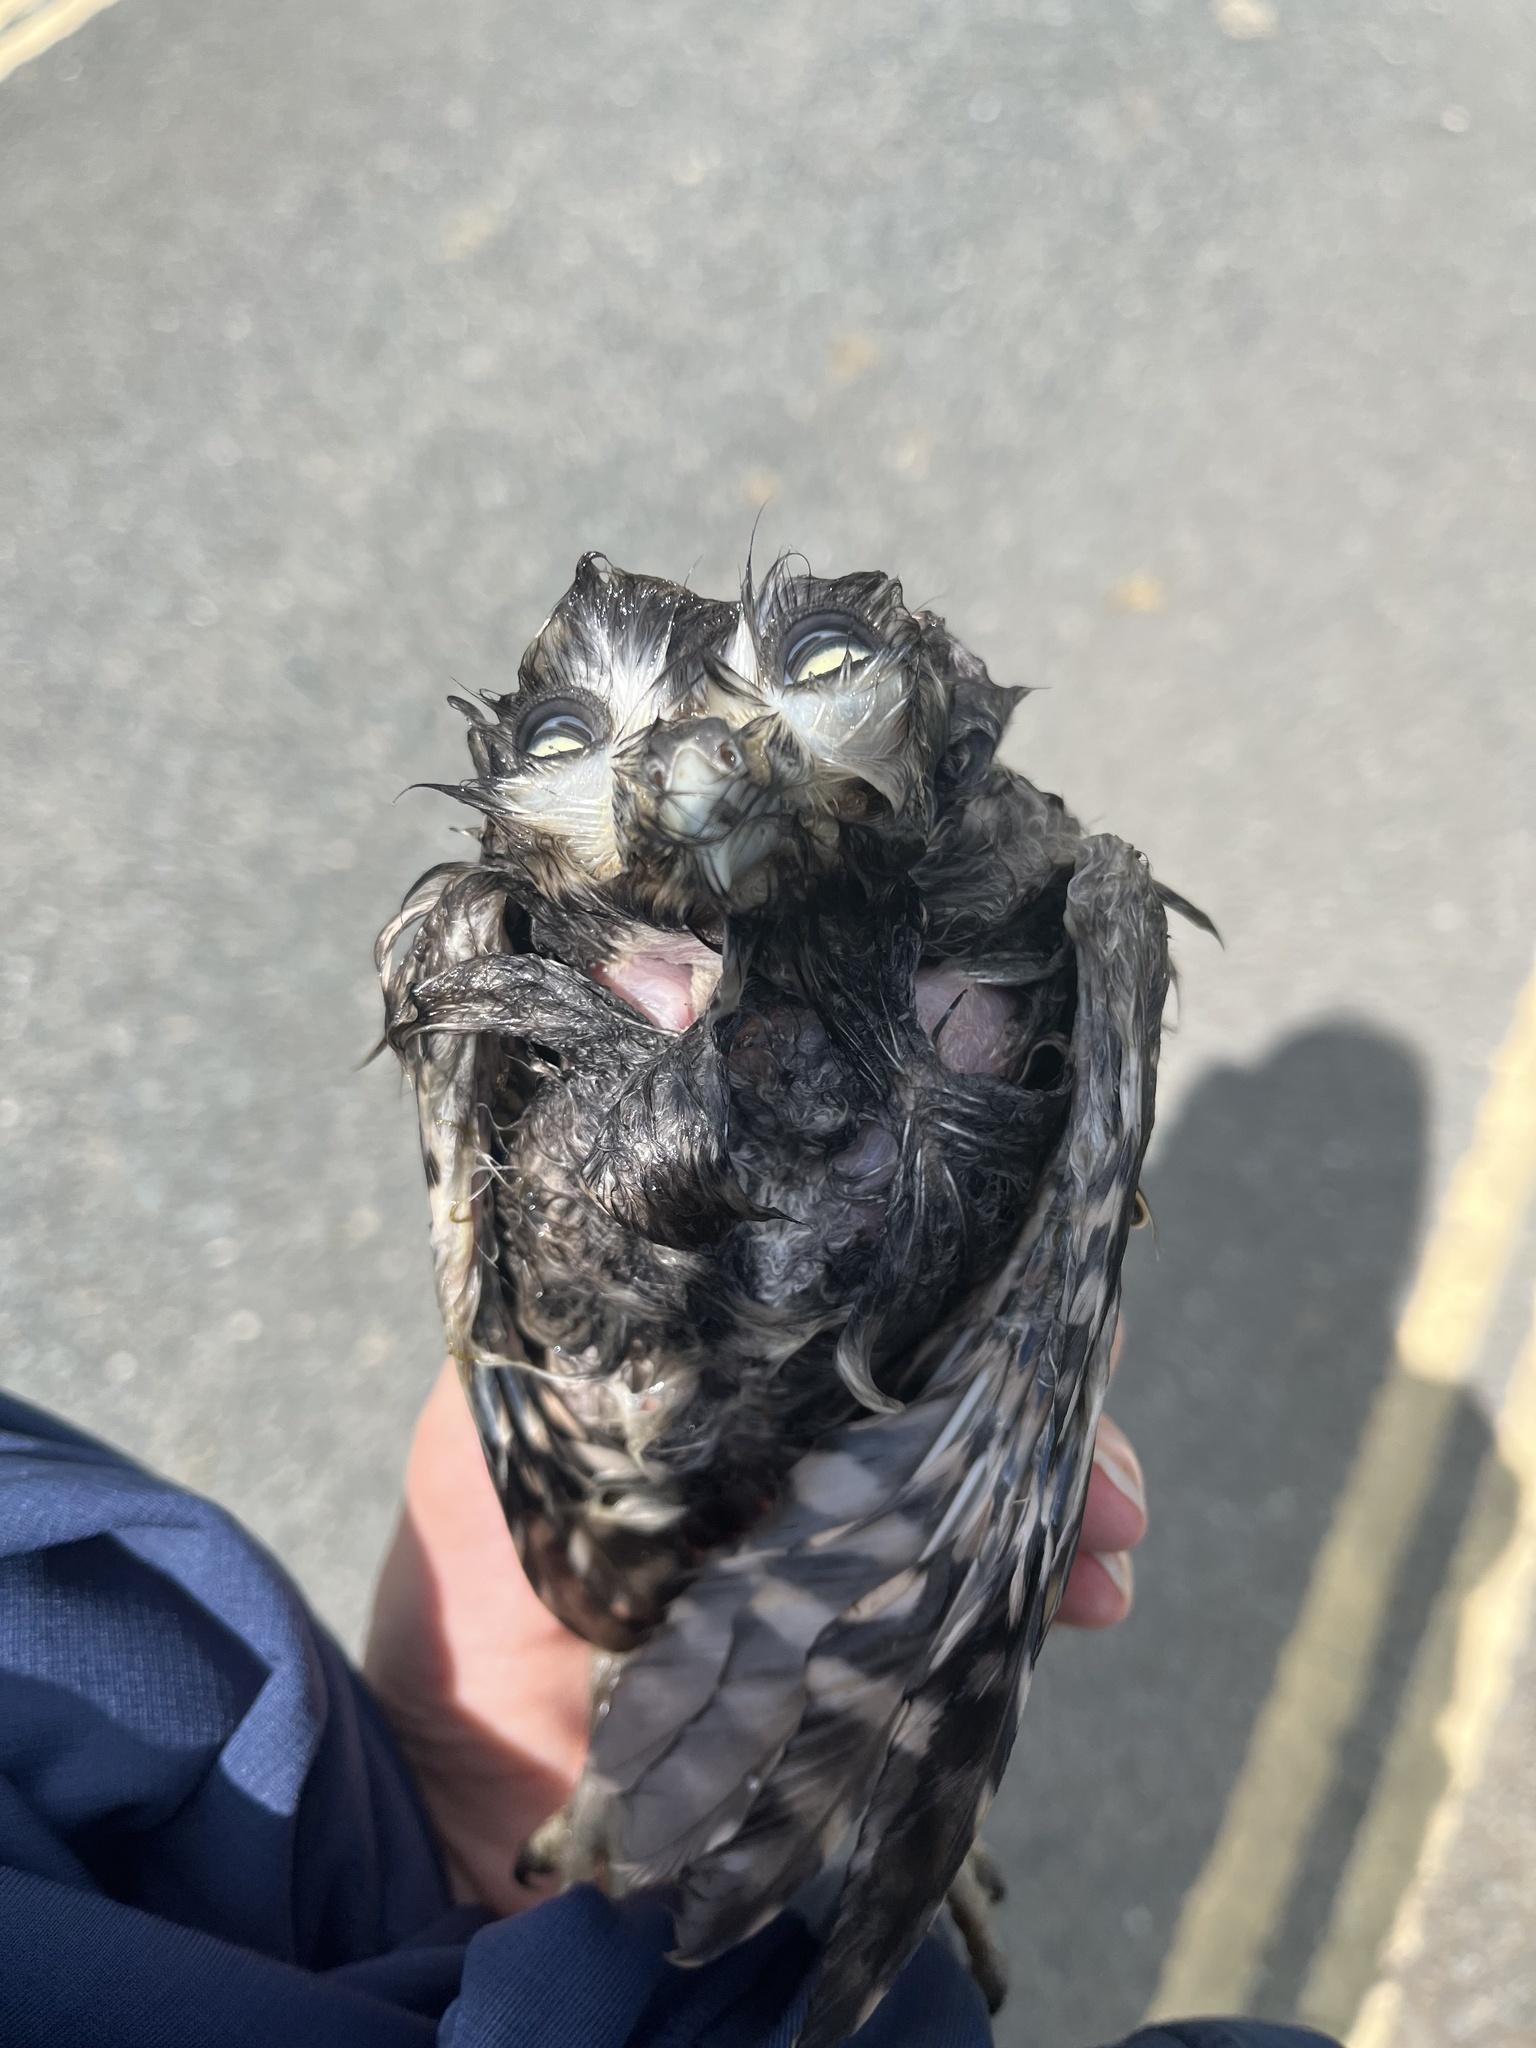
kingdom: Animalia
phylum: Chordata
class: Aves
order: Strigiformes
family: Strigidae
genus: Athene
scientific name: Athene noctua
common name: Little owl
